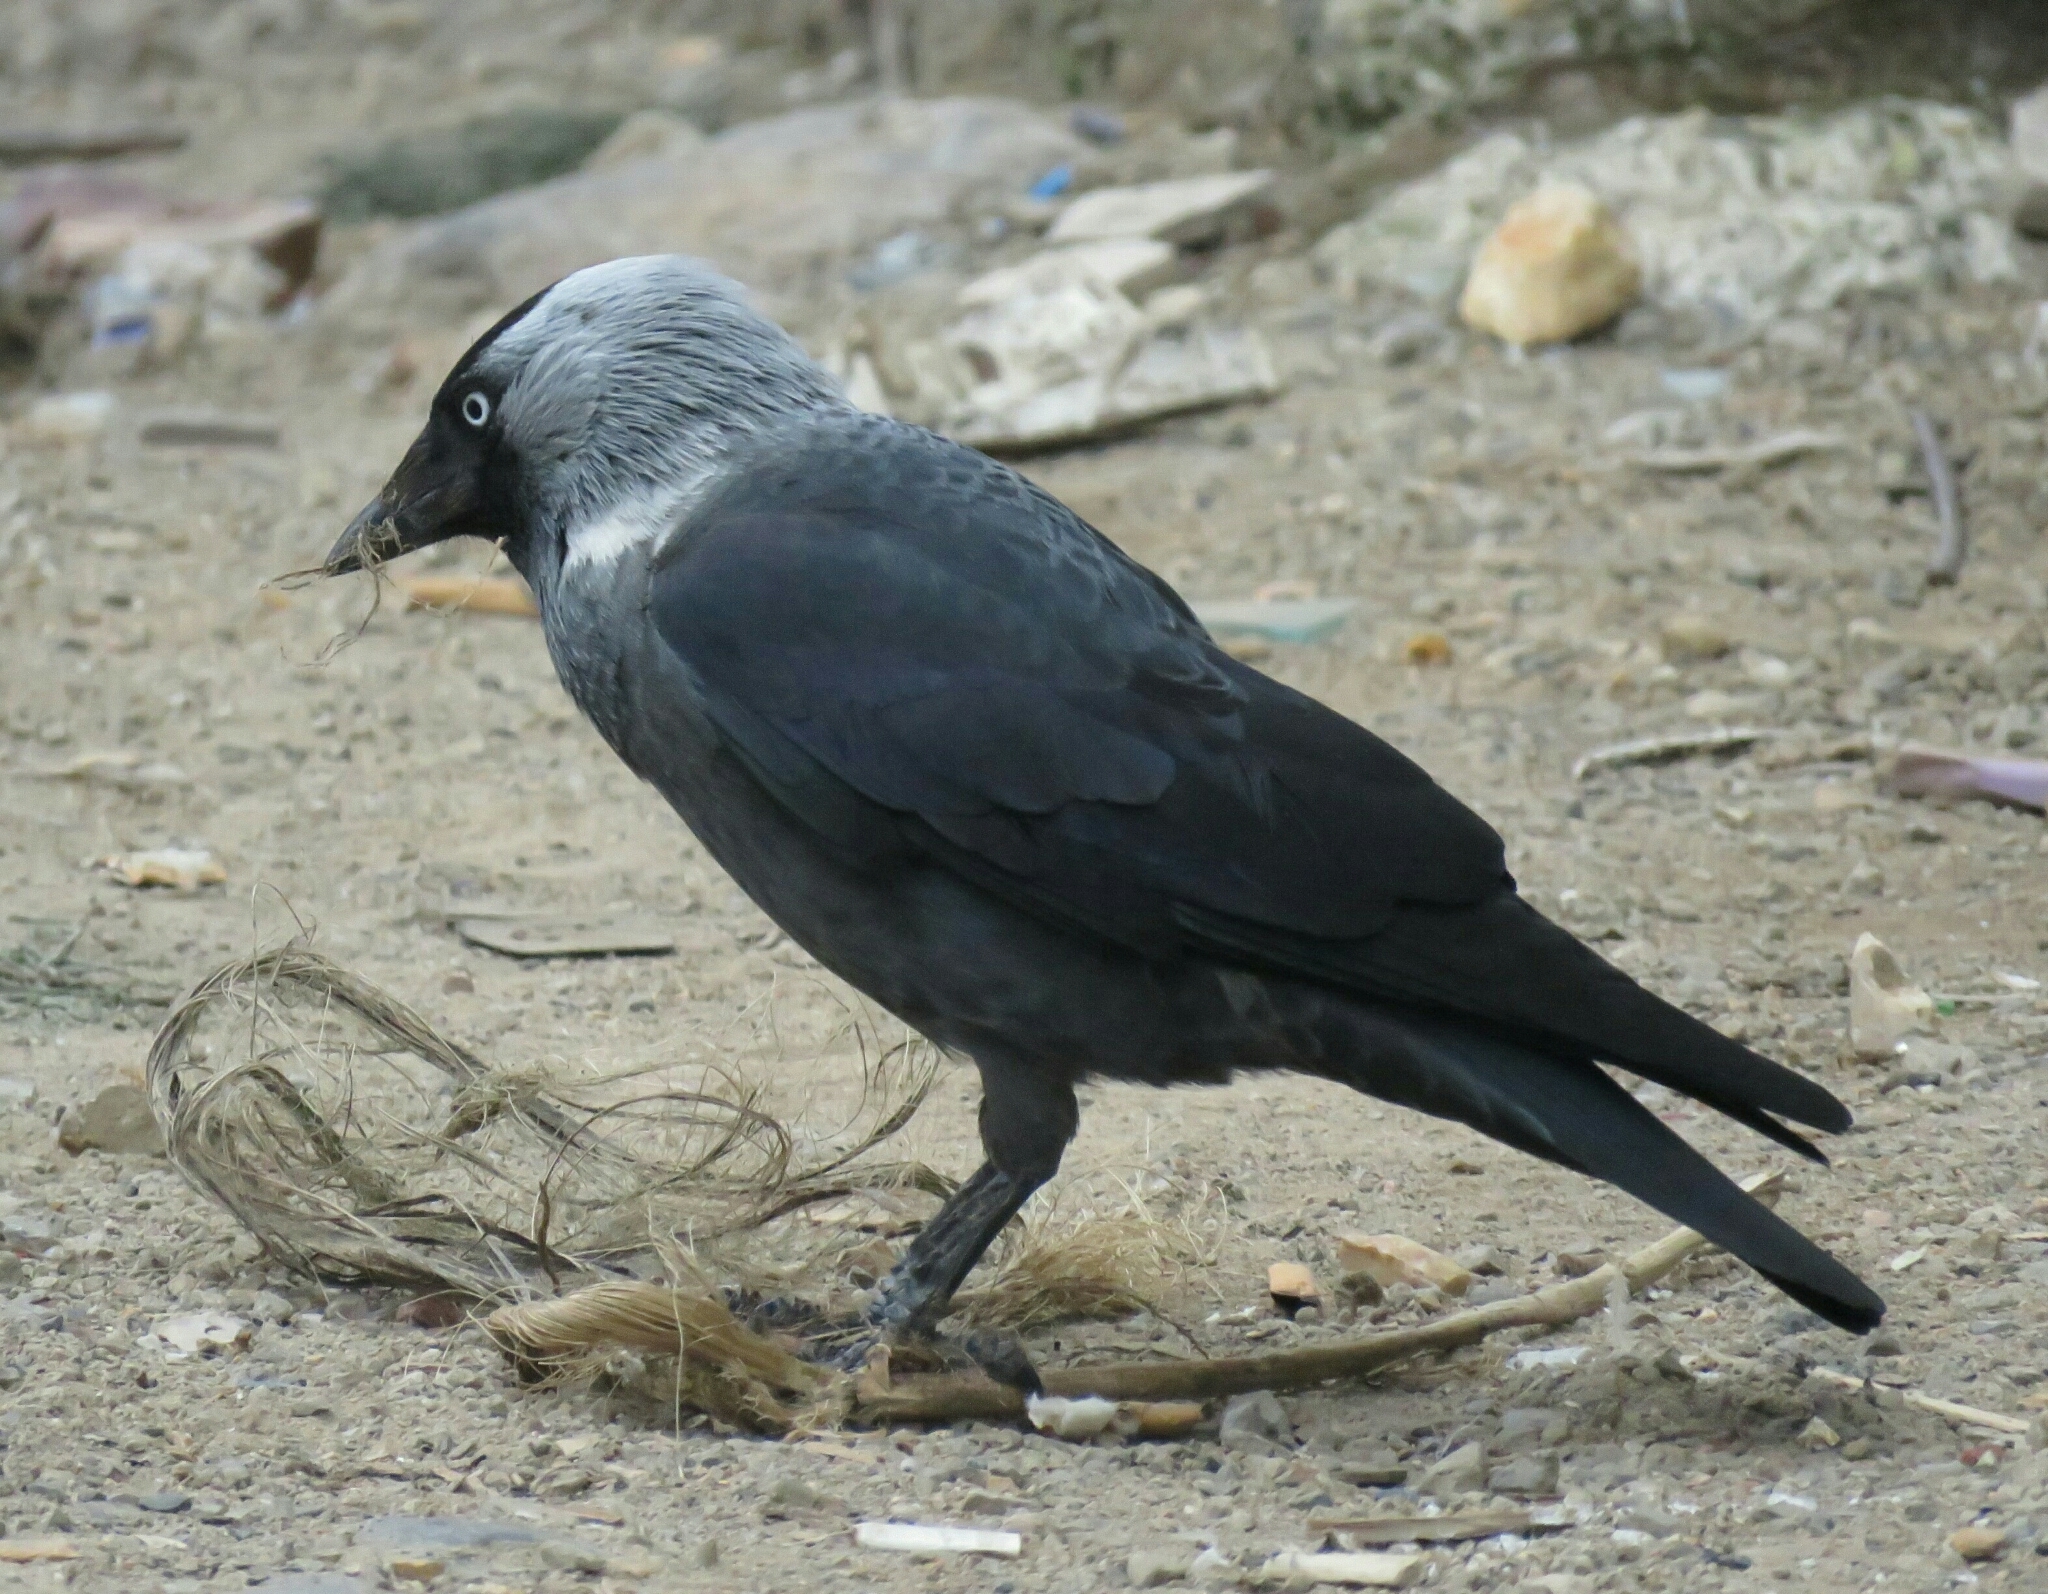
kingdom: Animalia
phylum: Chordata
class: Aves
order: Passeriformes
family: Corvidae
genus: Coloeus
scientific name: Coloeus monedula
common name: Western jackdaw
